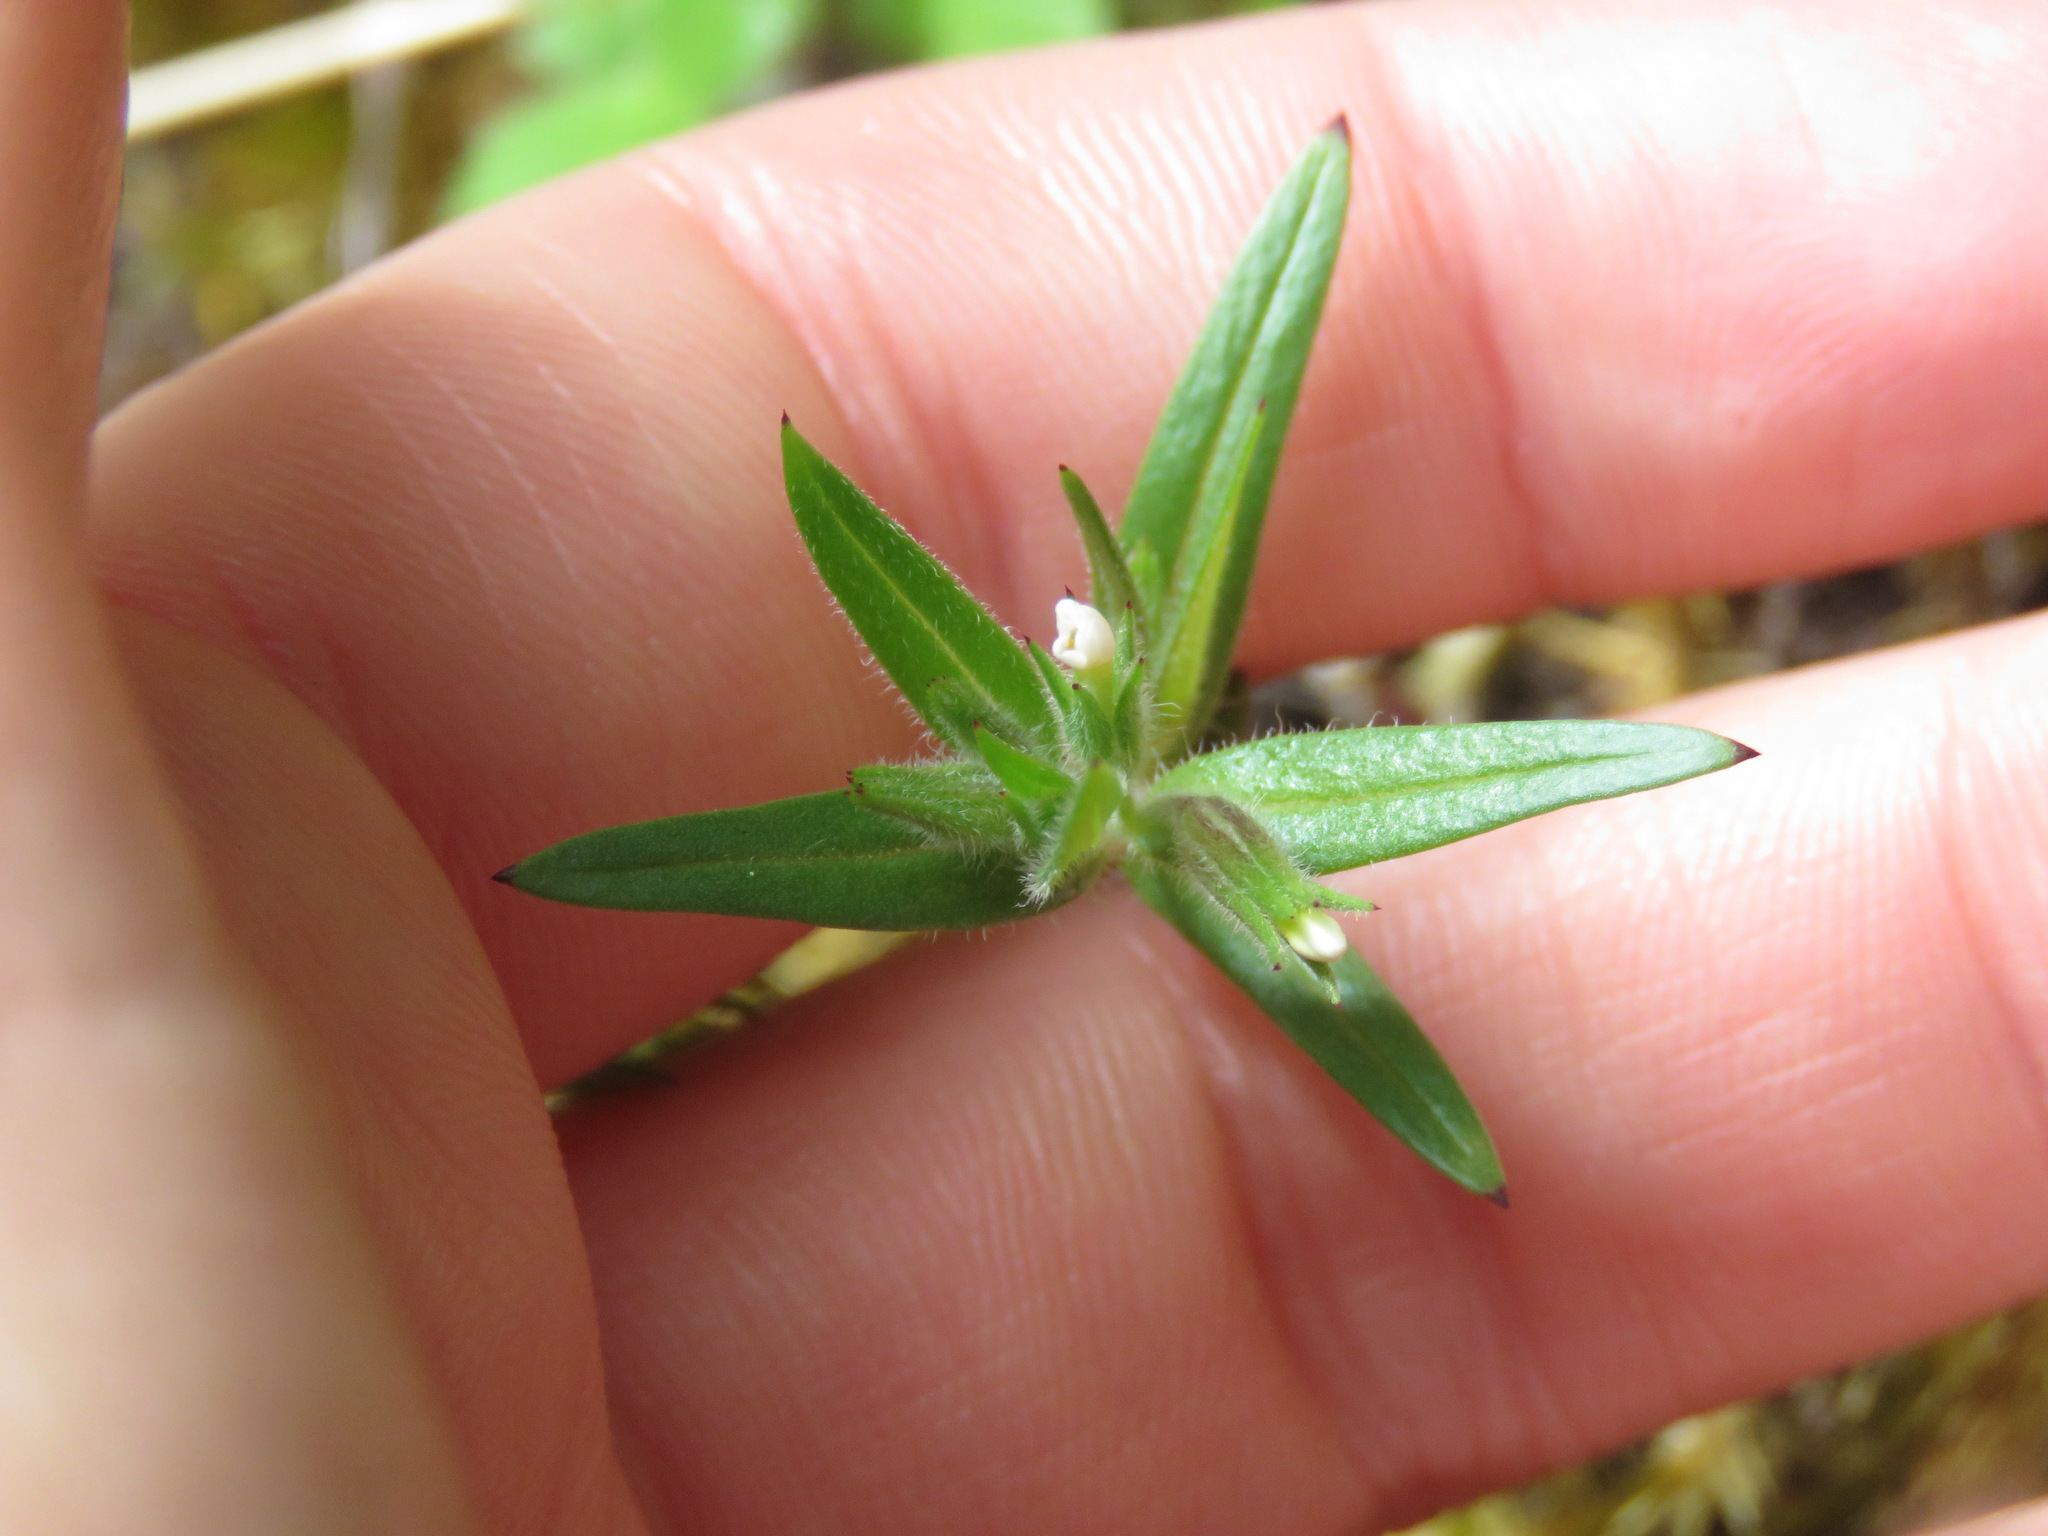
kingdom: Plantae
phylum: Tracheophyta
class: Magnoliopsida
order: Ericales
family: Polemoniaceae
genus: Phlox
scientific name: Phlox gracilis
